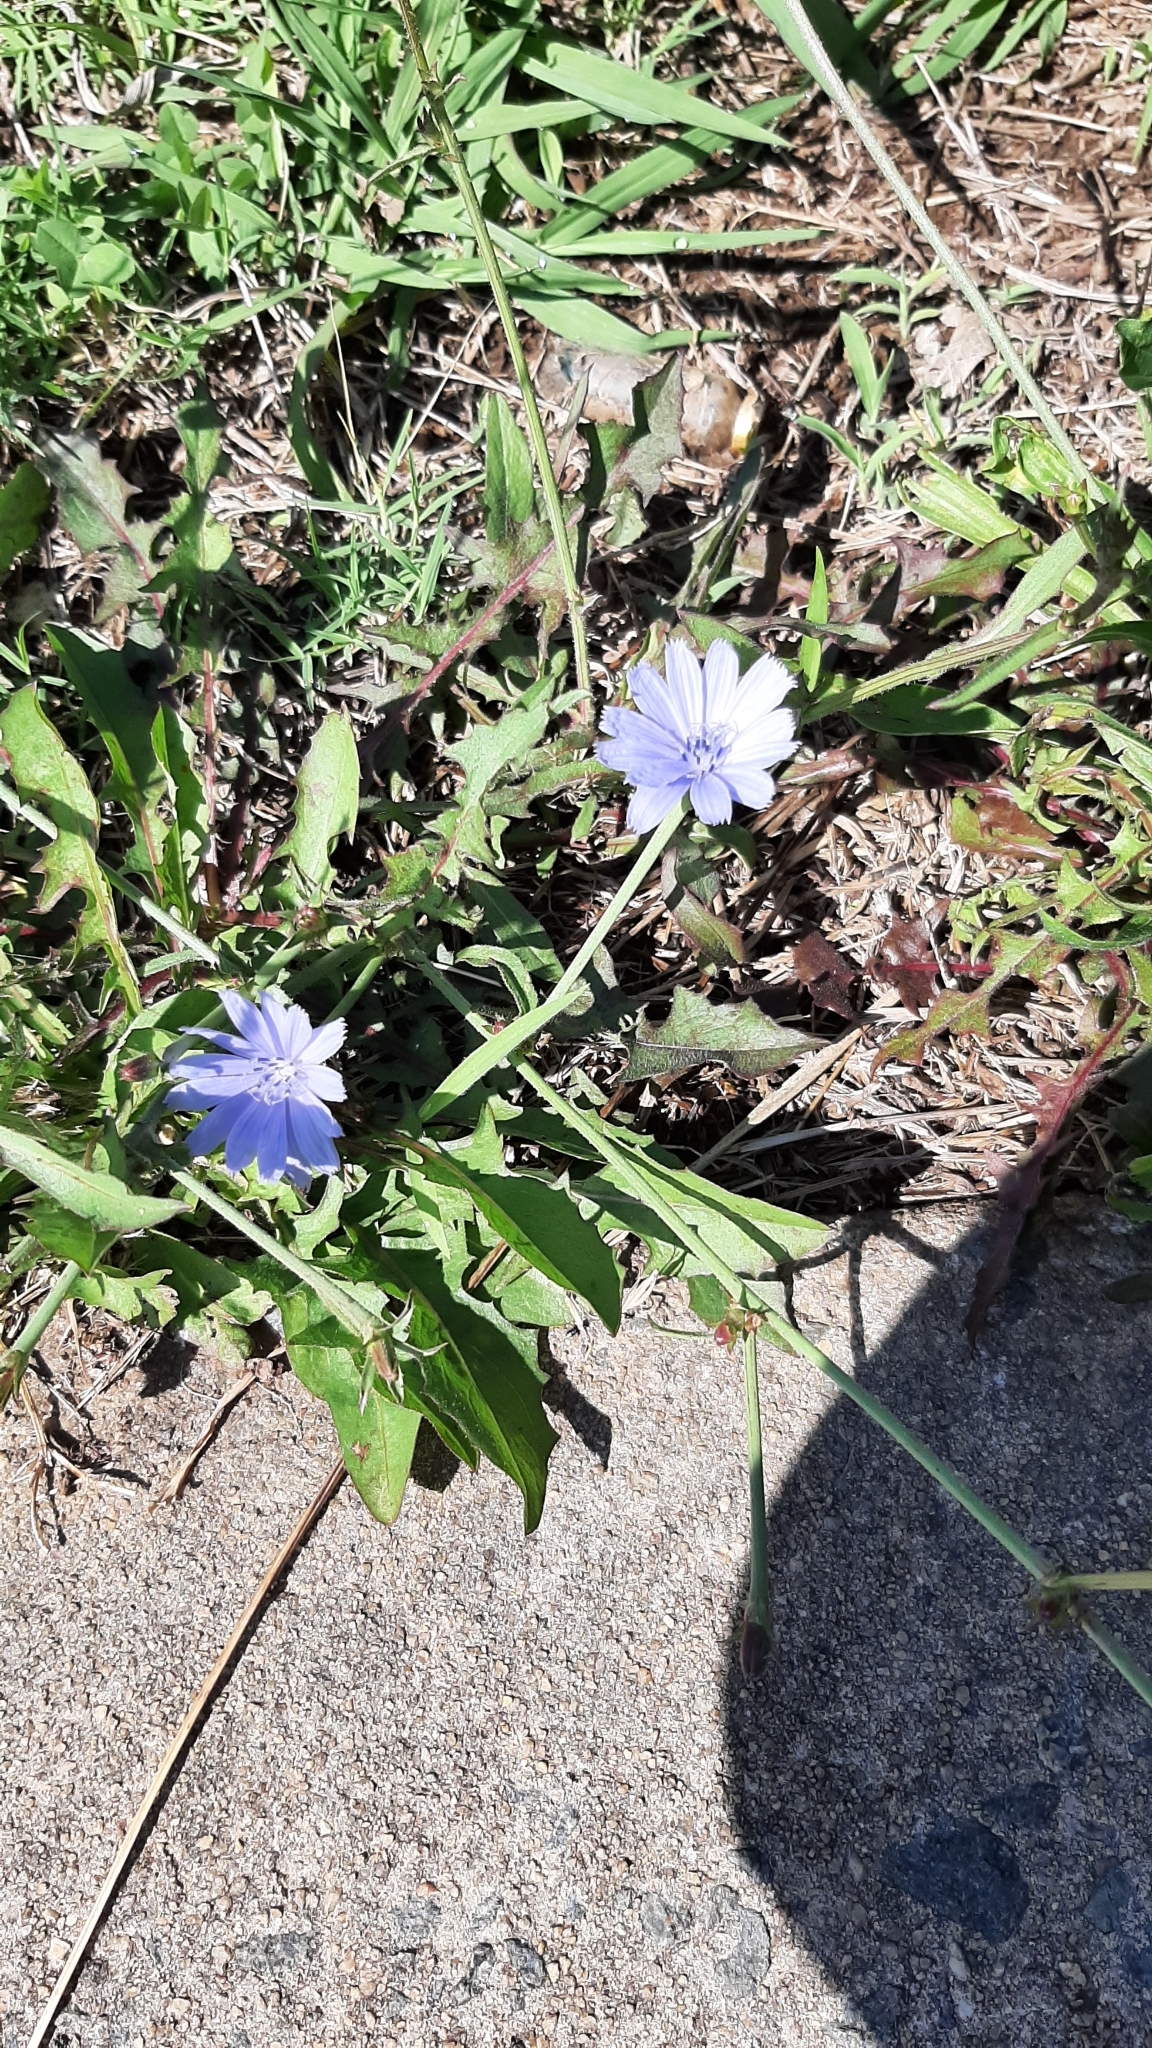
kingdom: Plantae
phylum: Tracheophyta
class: Magnoliopsida
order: Asterales
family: Asteraceae
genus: Cichorium
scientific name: Cichorium intybus
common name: Chicory
